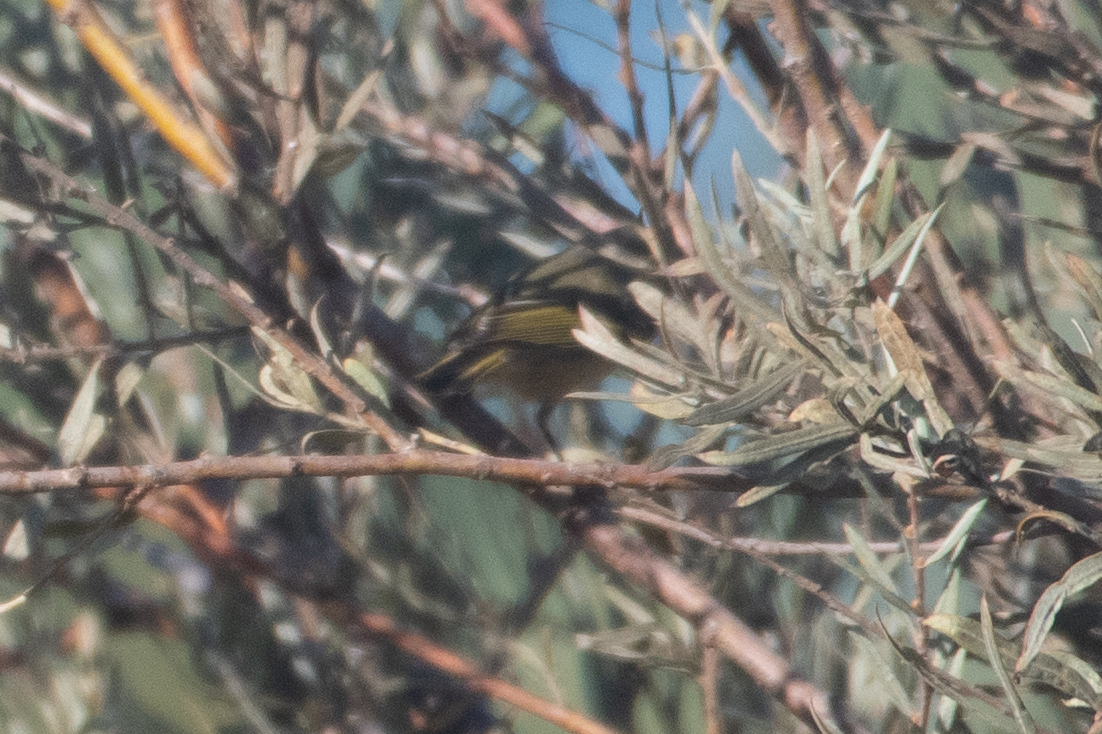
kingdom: Animalia
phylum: Chordata
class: Aves
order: Passeriformes
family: Regulidae
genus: Regulus
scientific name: Regulus calendula
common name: Ruby-crowned kinglet
